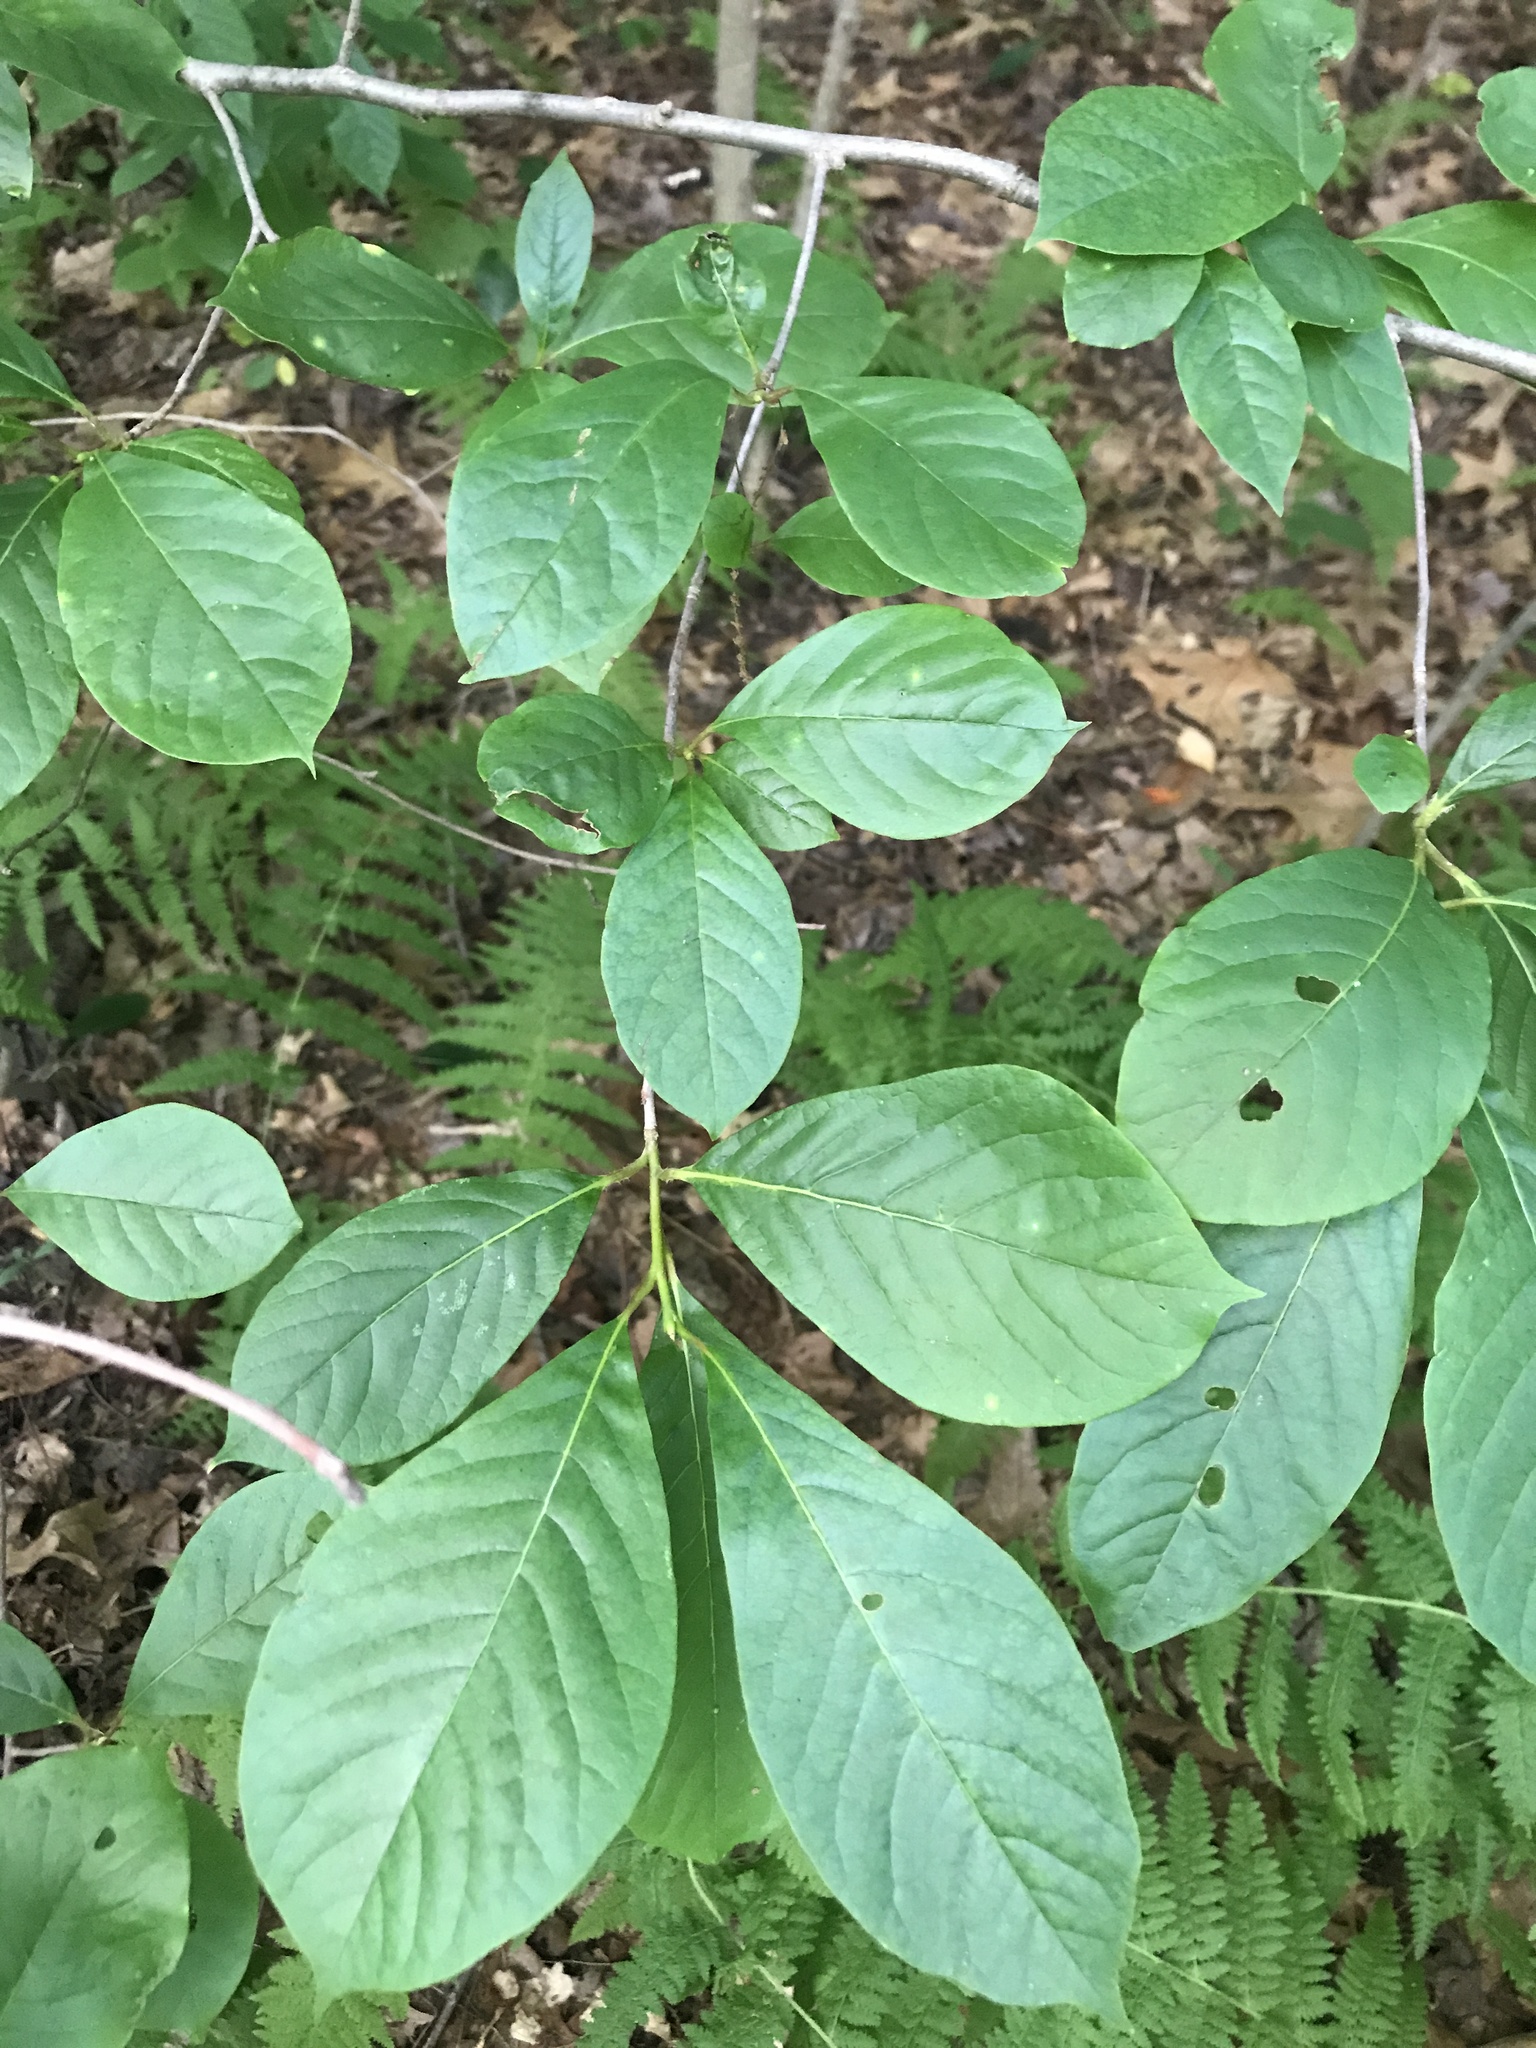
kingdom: Plantae
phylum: Tracheophyta
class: Magnoliopsida
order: Cornales
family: Nyssaceae
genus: Nyssa
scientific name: Nyssa sylvatica
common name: Black tupelo
